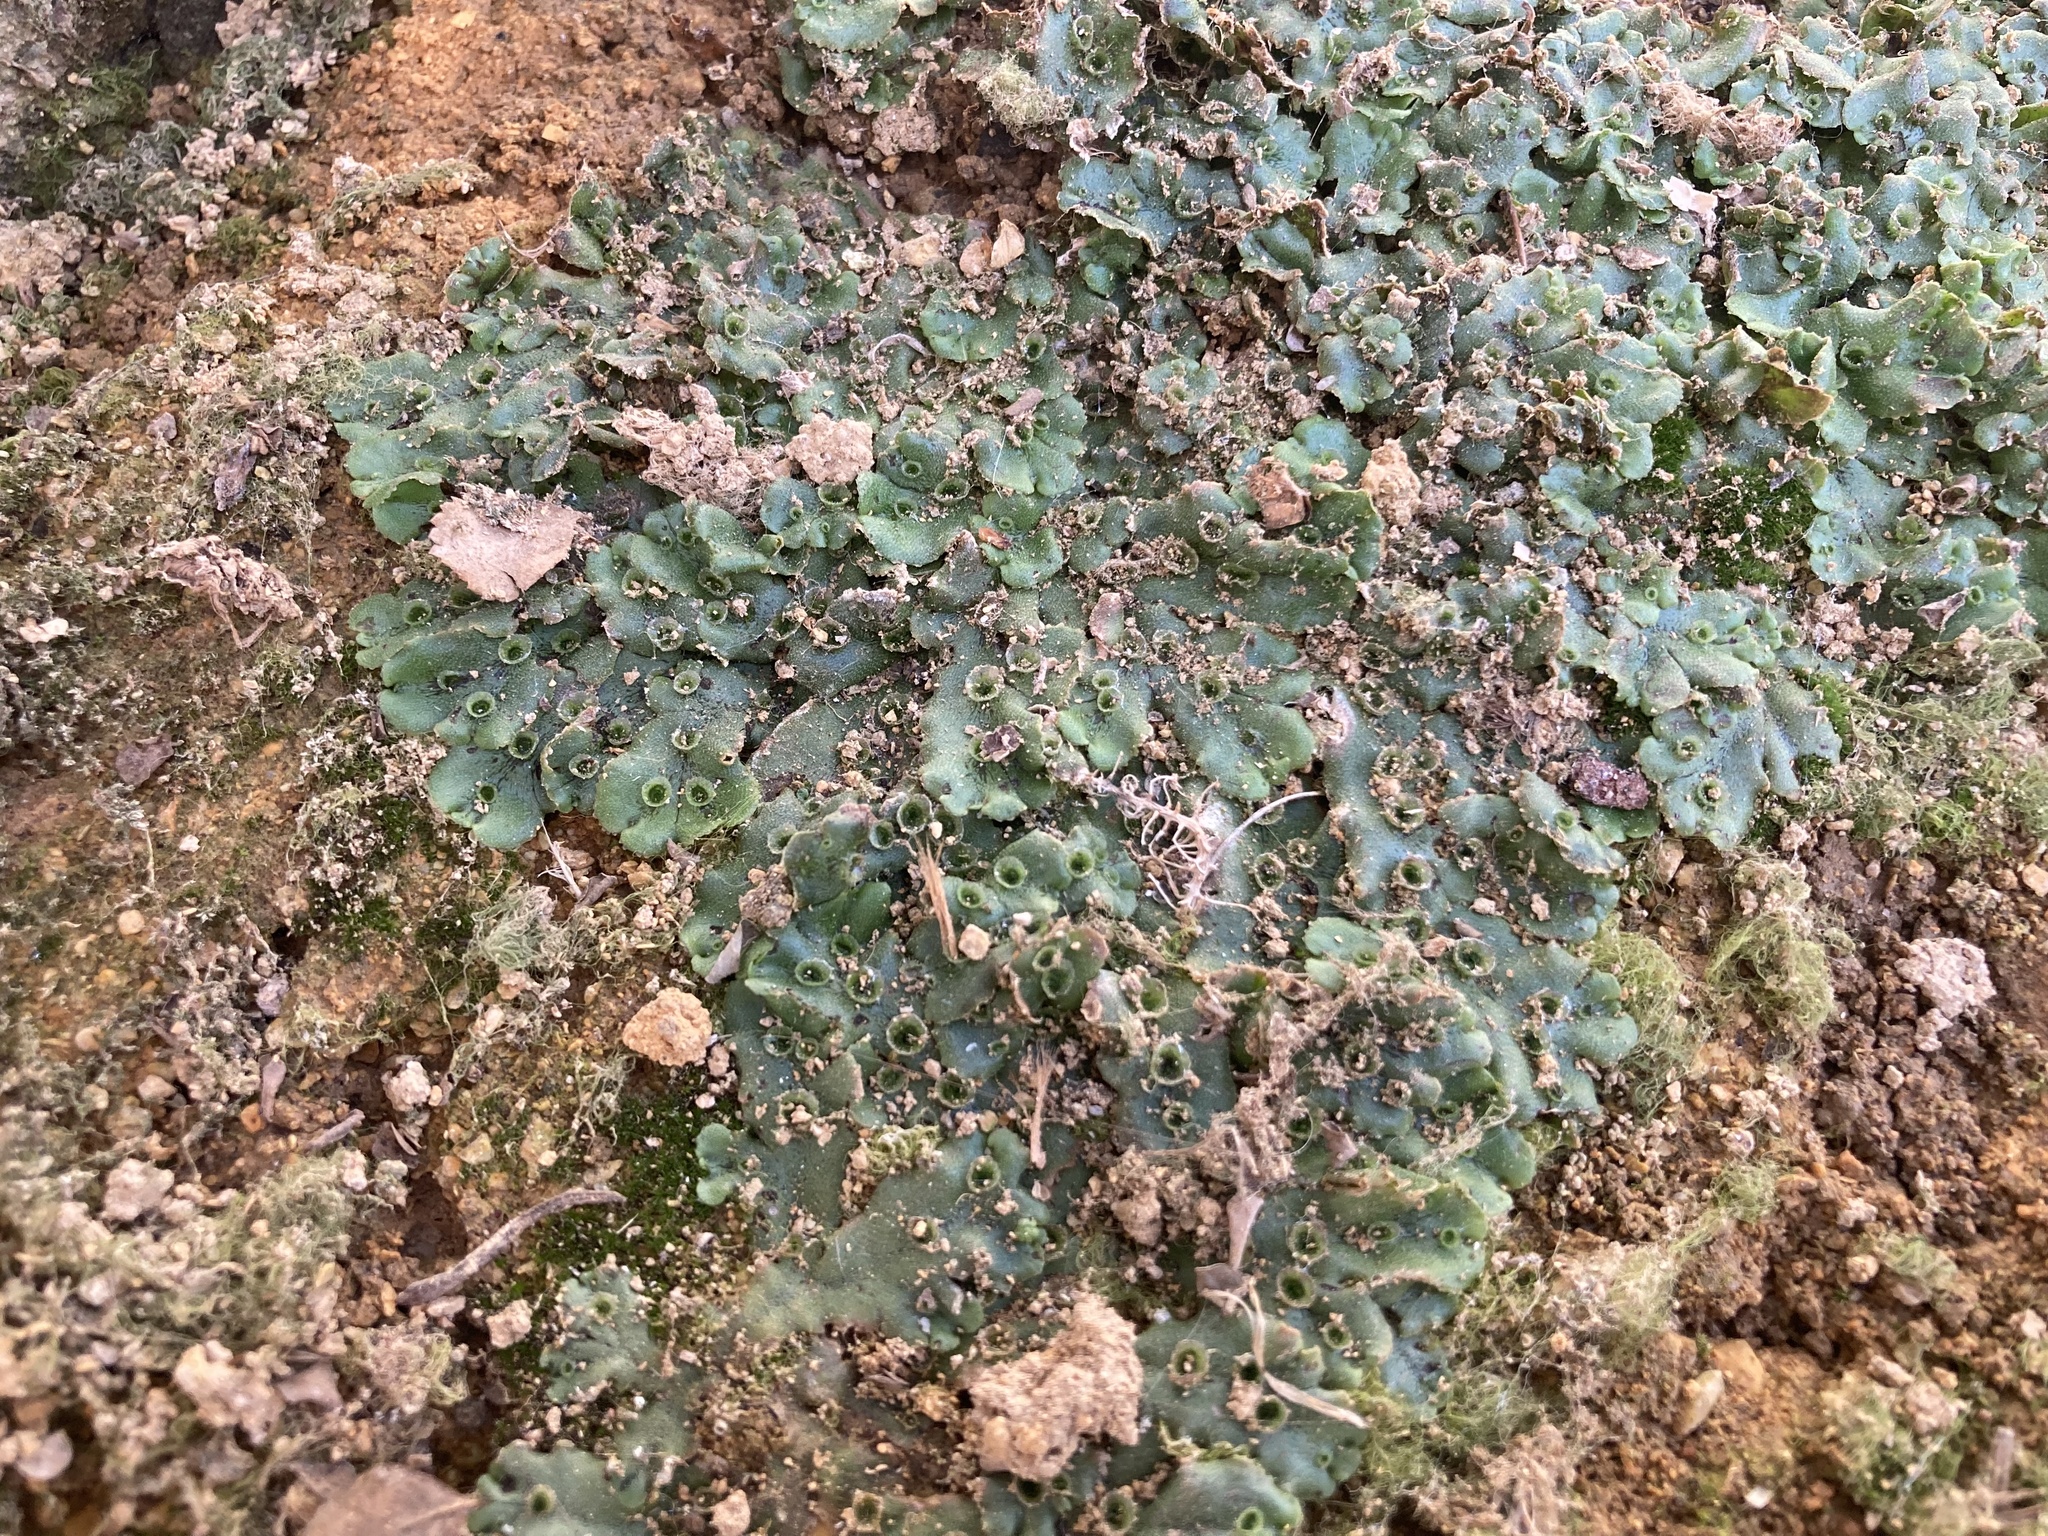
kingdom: Plantae
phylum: Marchantiophyta
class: Marchantiopsida
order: Marchantiales
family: Marchantiaceae
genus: Marchantia
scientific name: Marchantia polymorpha
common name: Common liverwort
